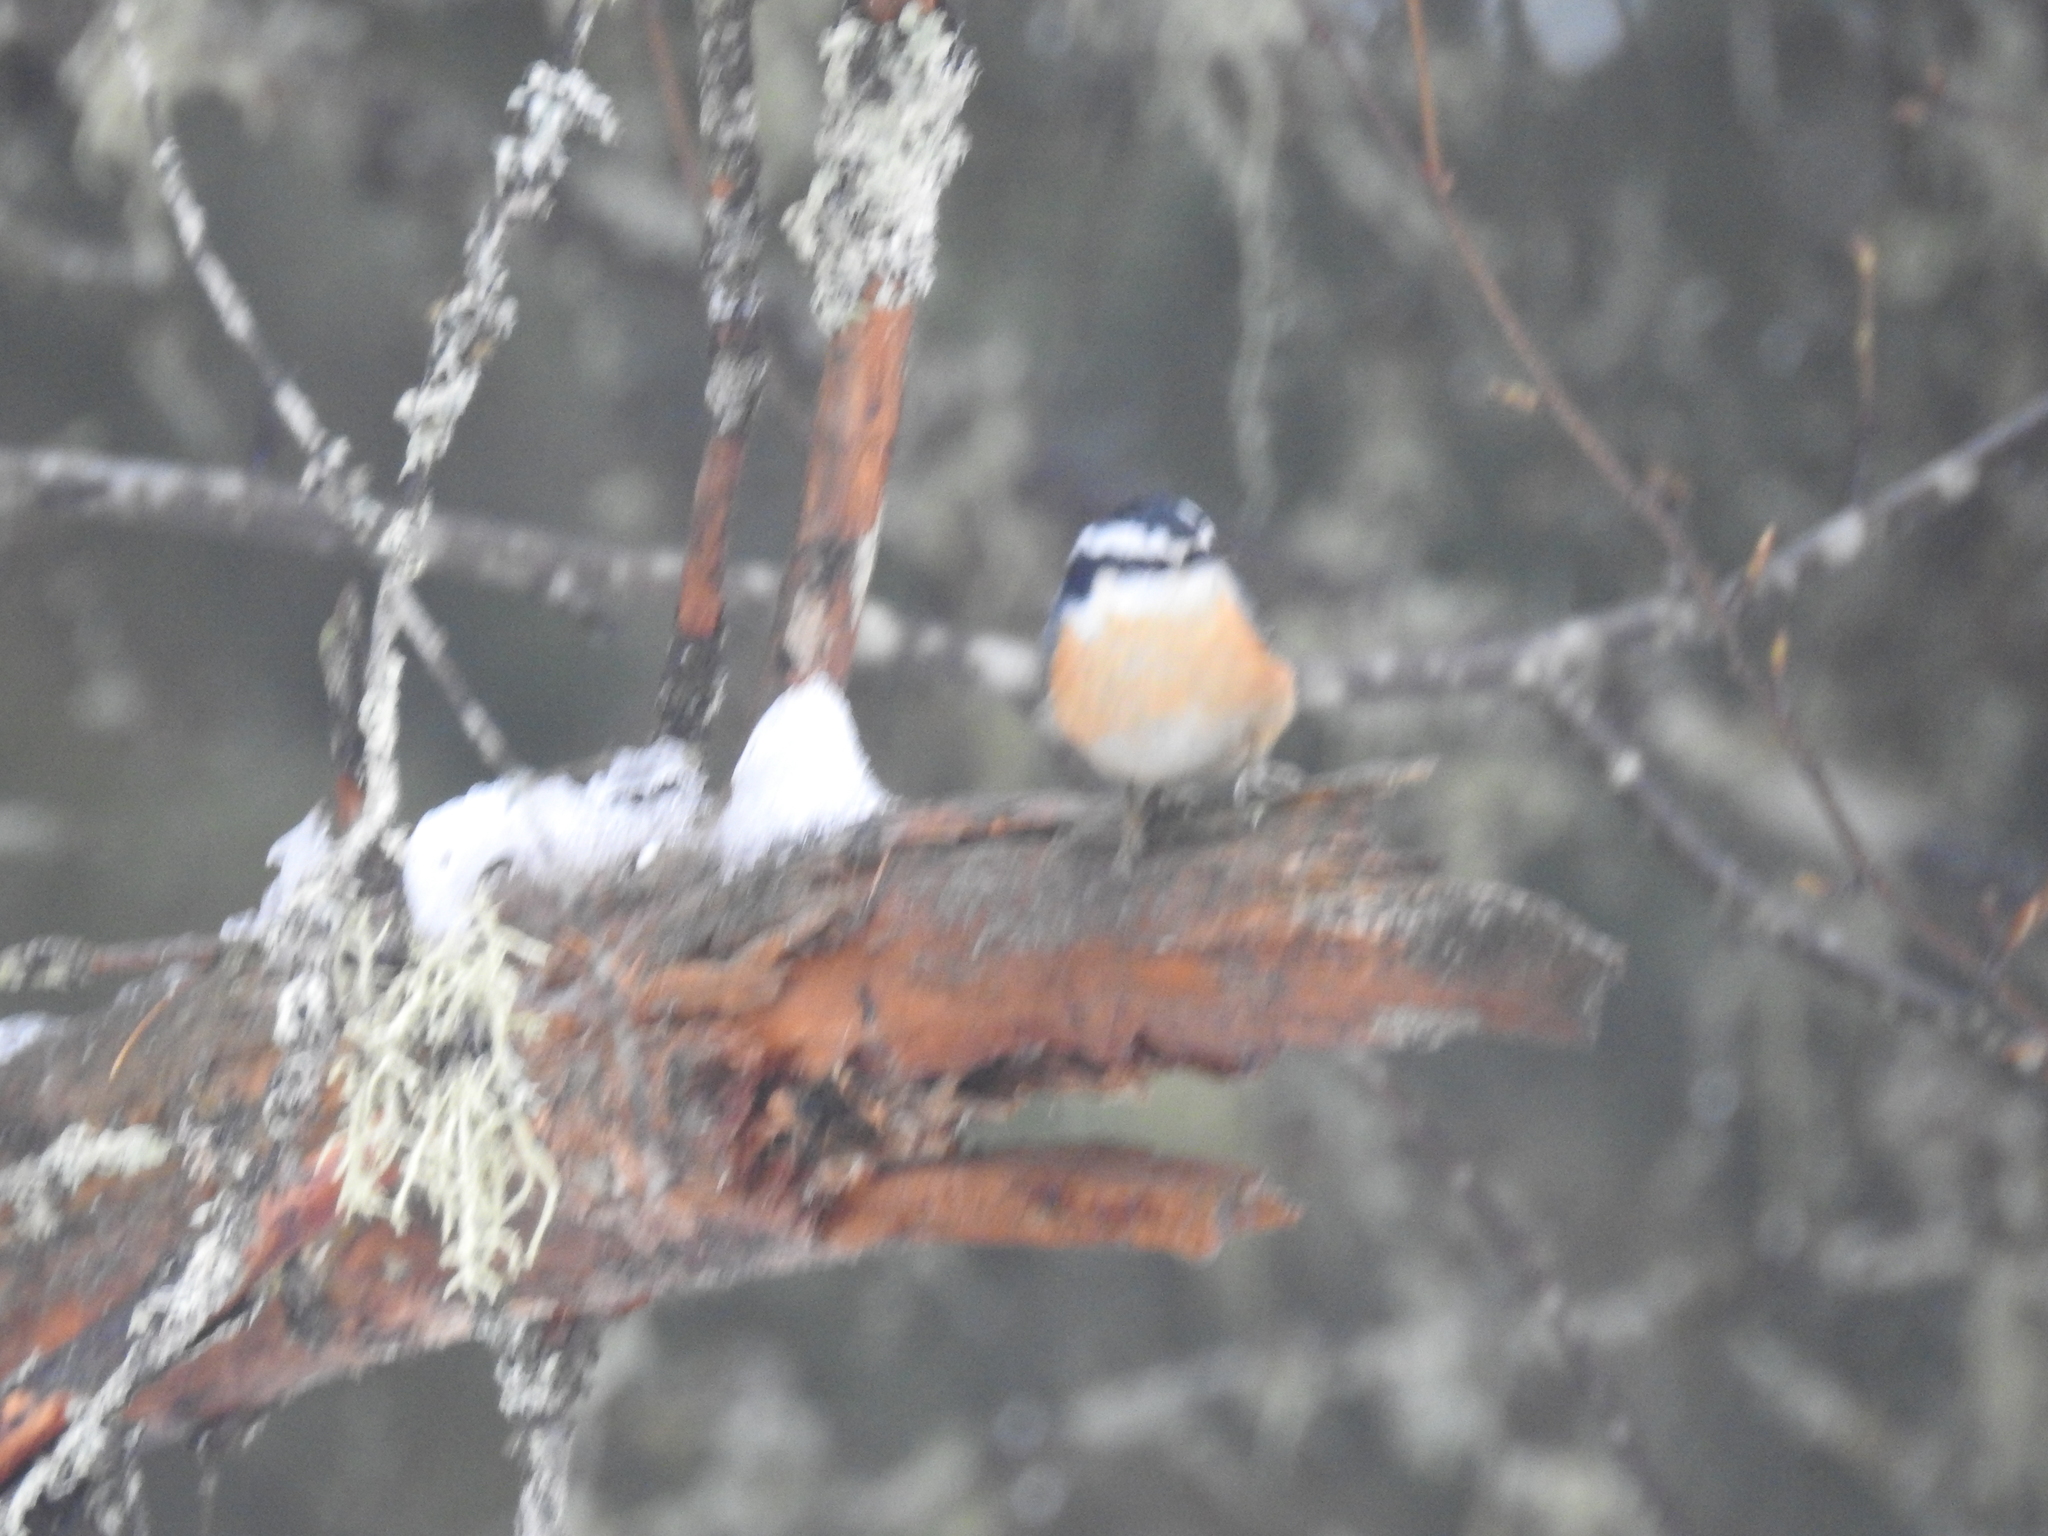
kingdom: Animalia
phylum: Chordata
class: Aves
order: Passeriformes
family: Sittidae
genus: Sitta
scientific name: Sitta canadensis
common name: Red-breasted nuthatch
